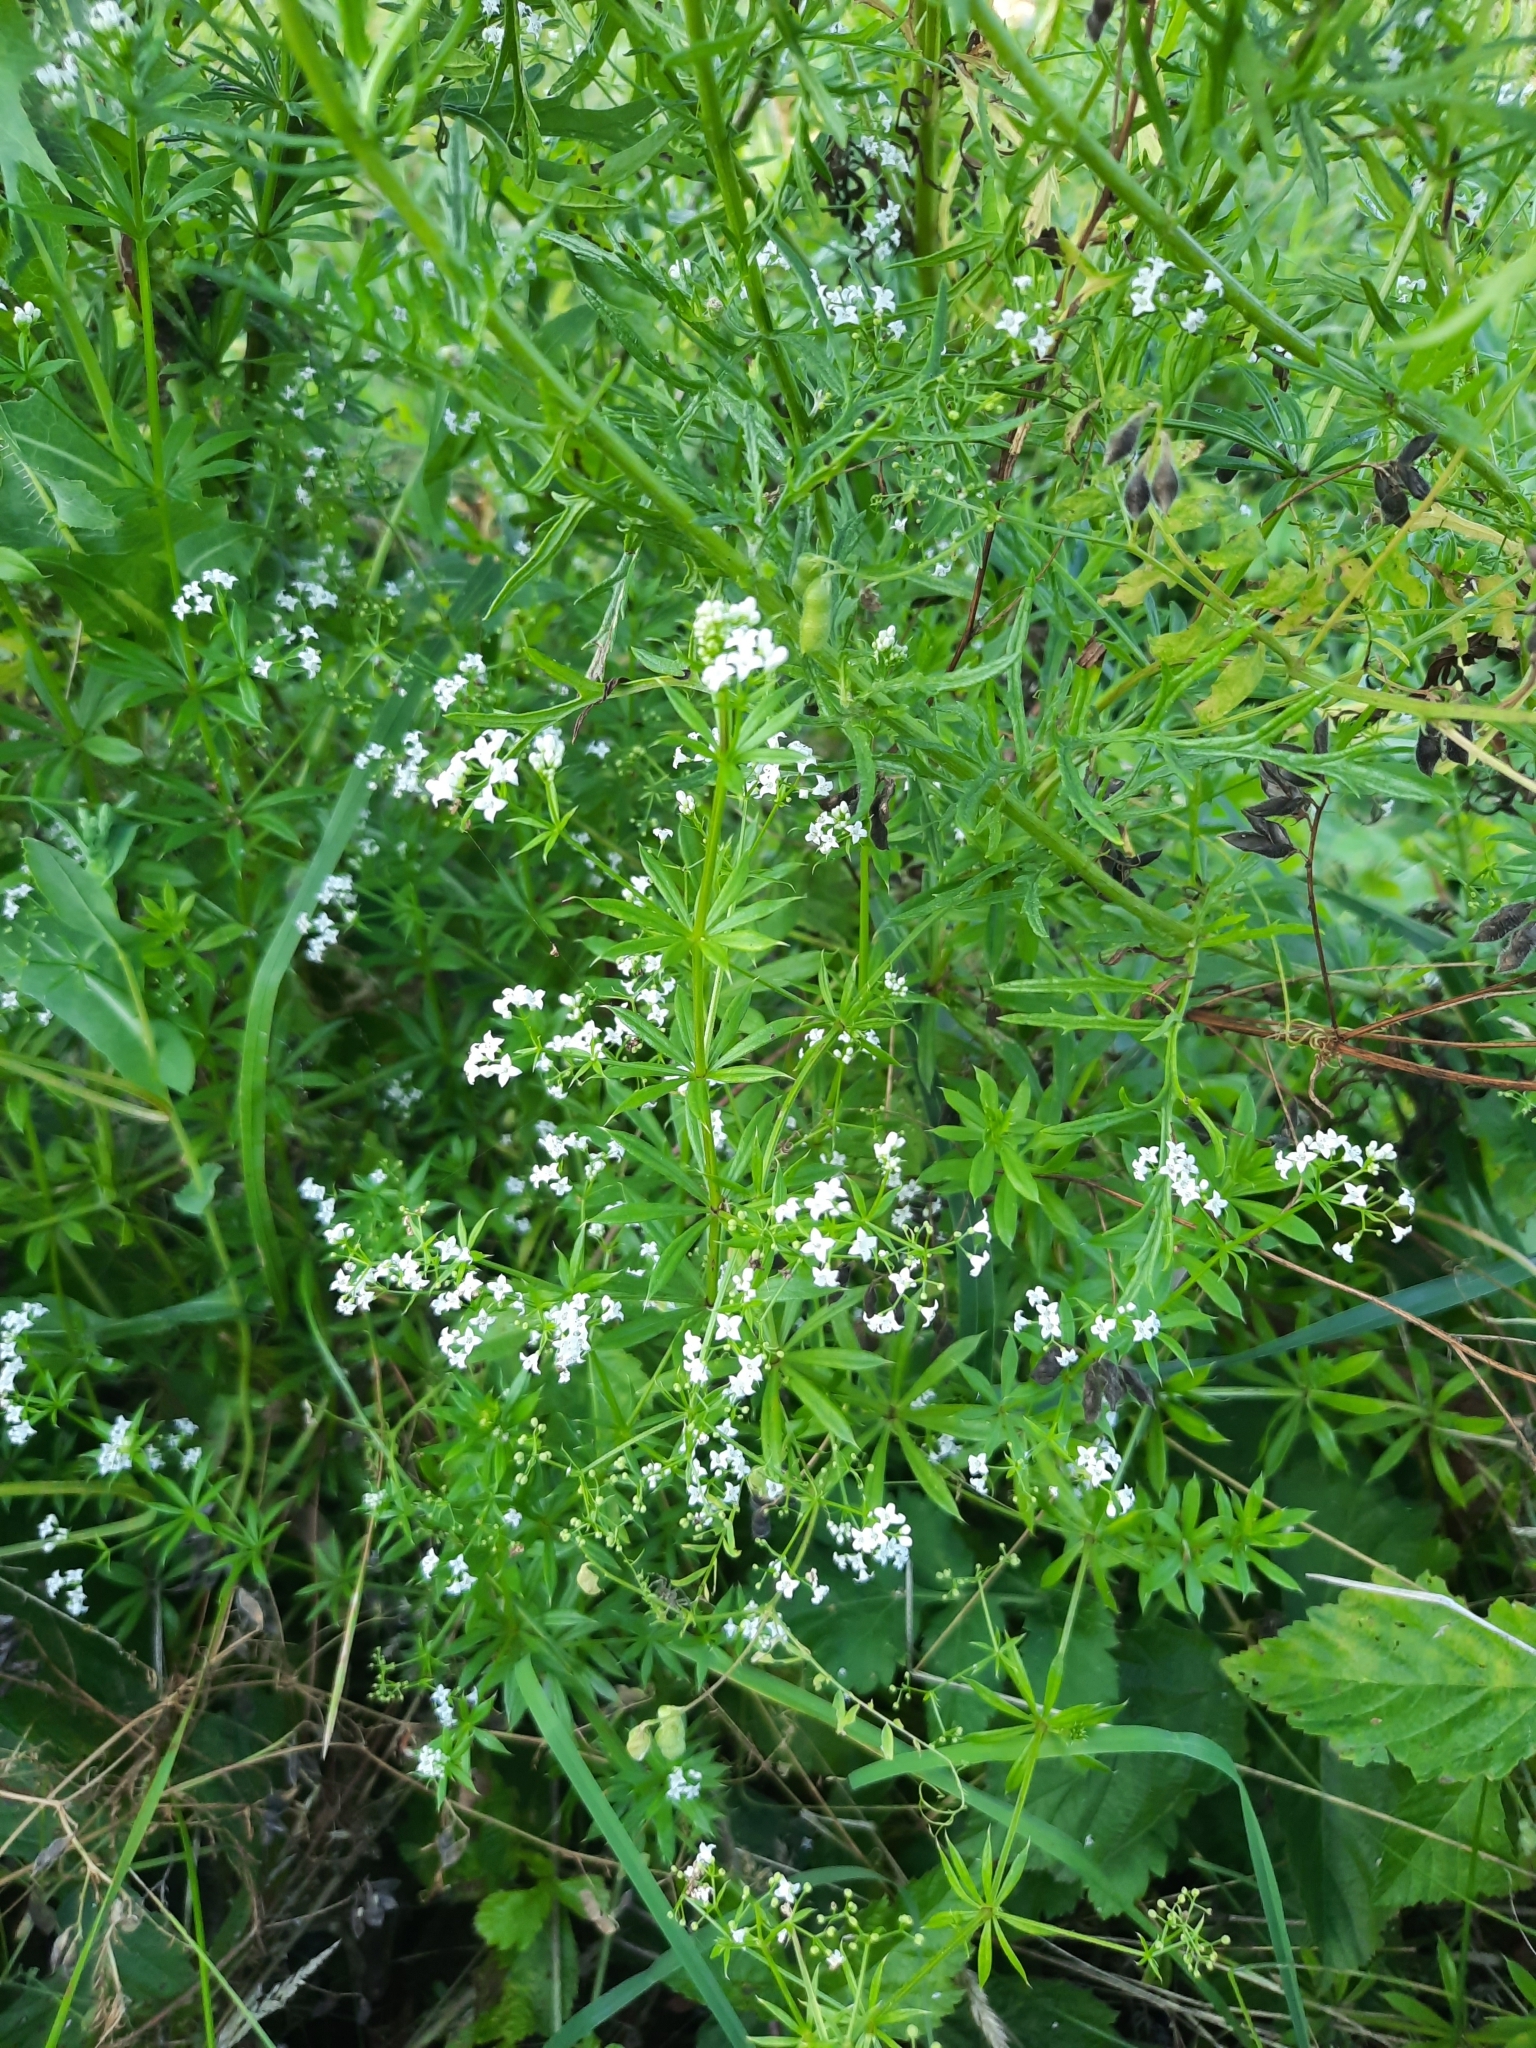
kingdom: Plantae
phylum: Tracheophyta
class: Magnoliopsida
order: Gentianales
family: Rubiaceae
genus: Galium
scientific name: Galium rivale
